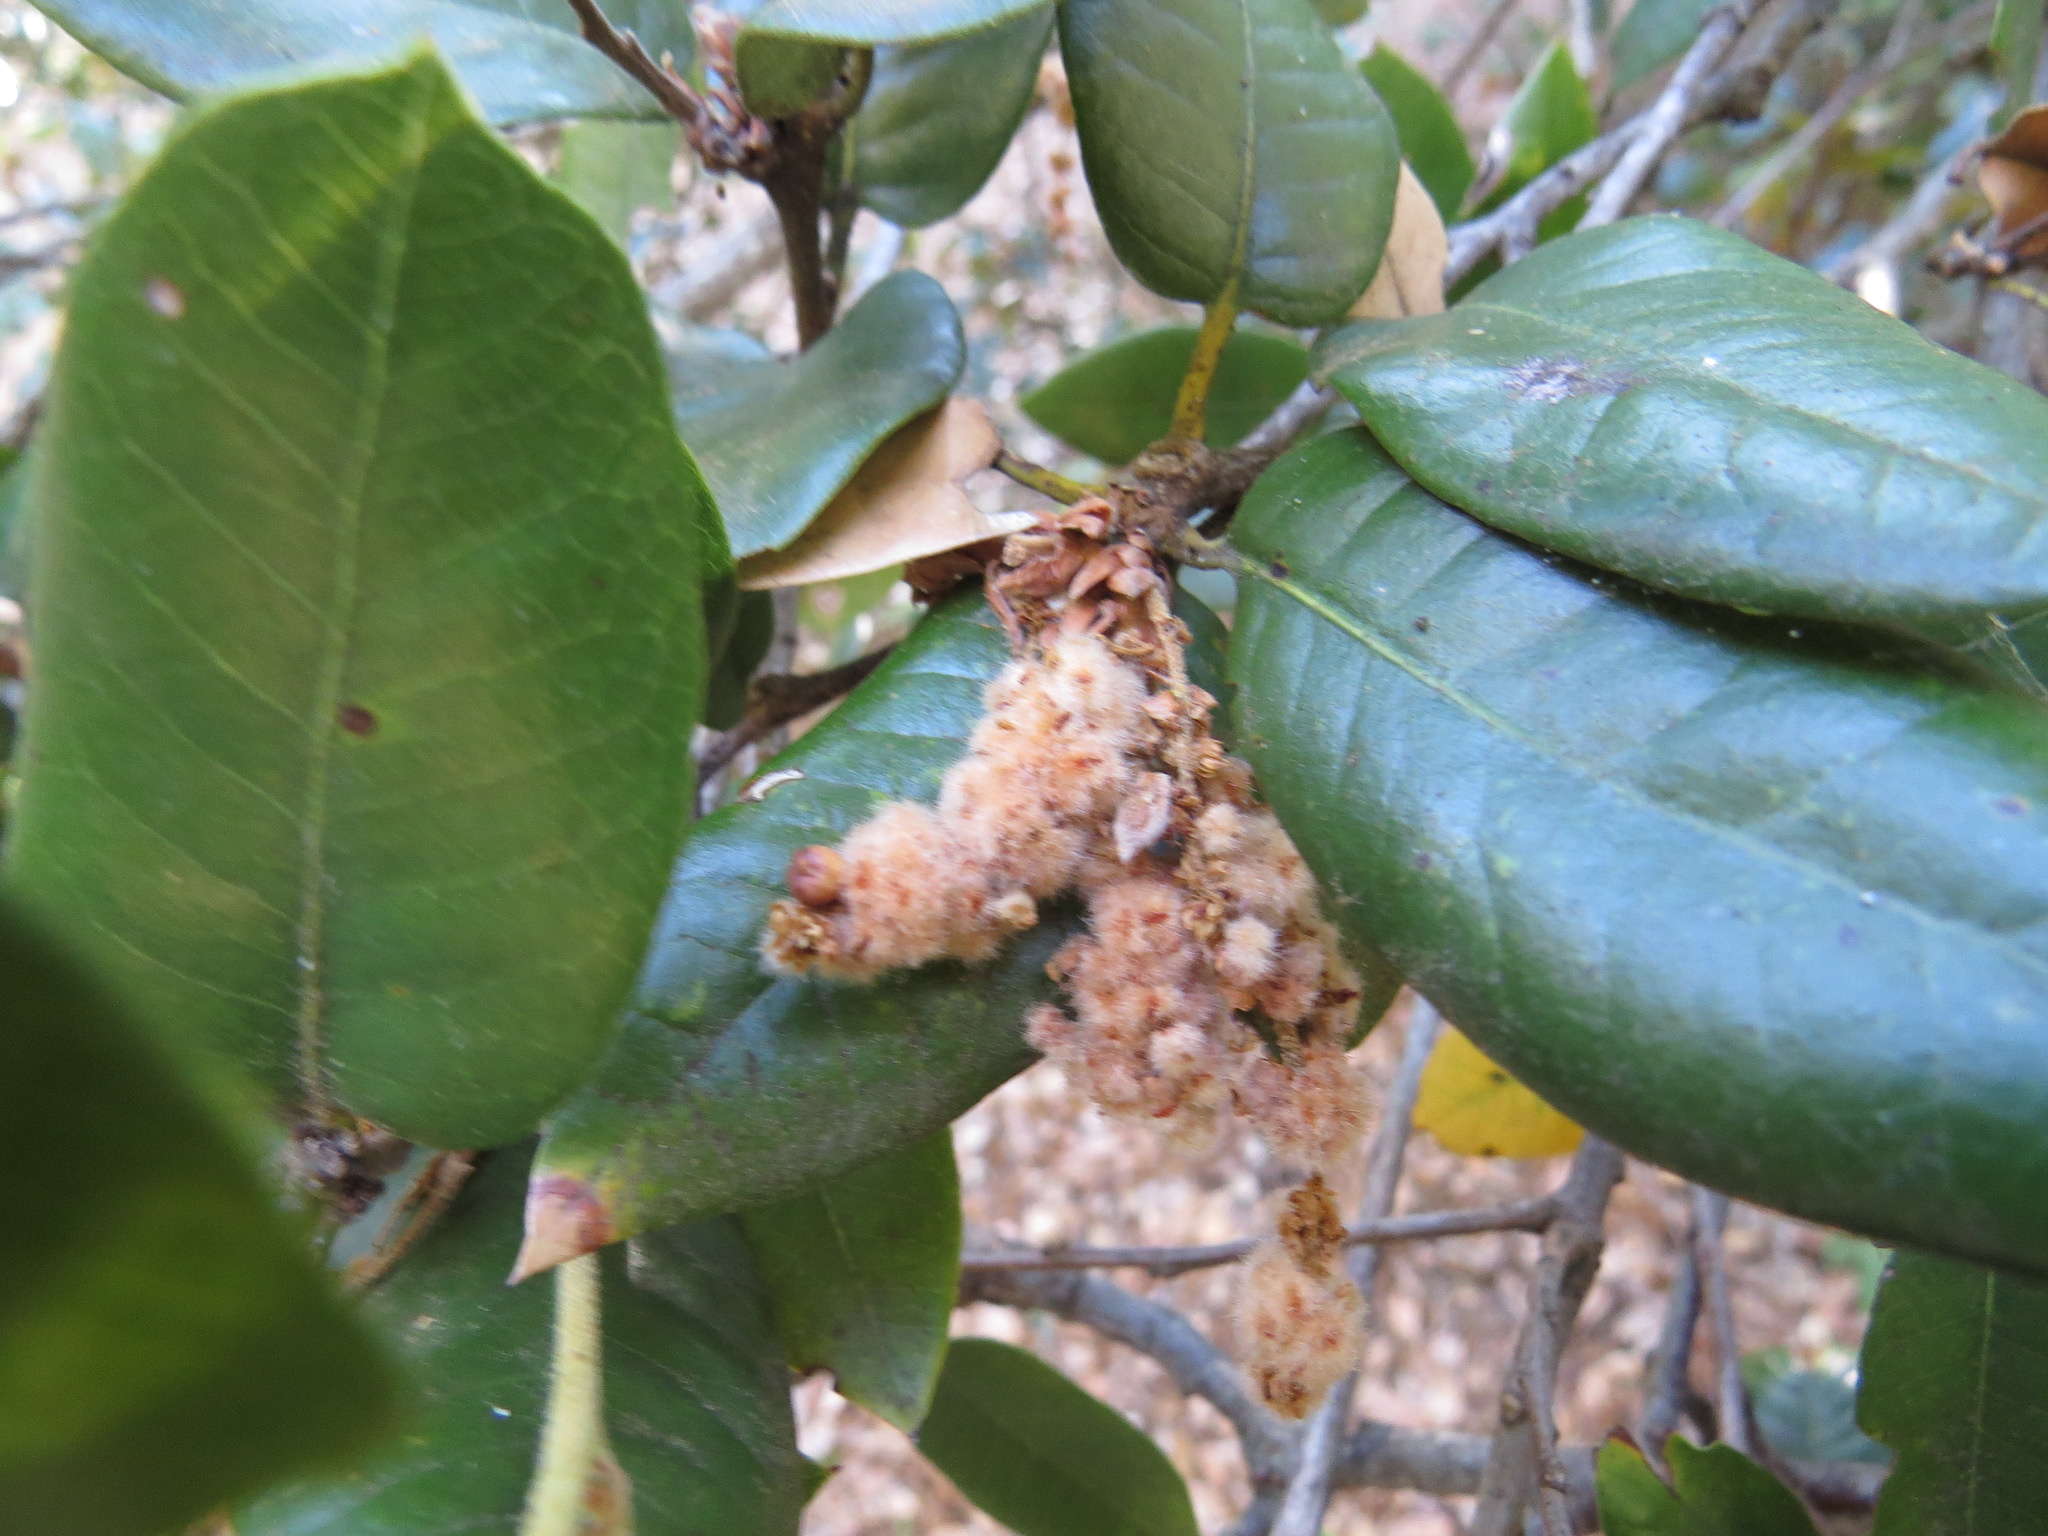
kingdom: Animalia
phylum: Arthropoda
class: Insecta
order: Hymenoptera
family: Cynipidae
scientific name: Cynipidae
